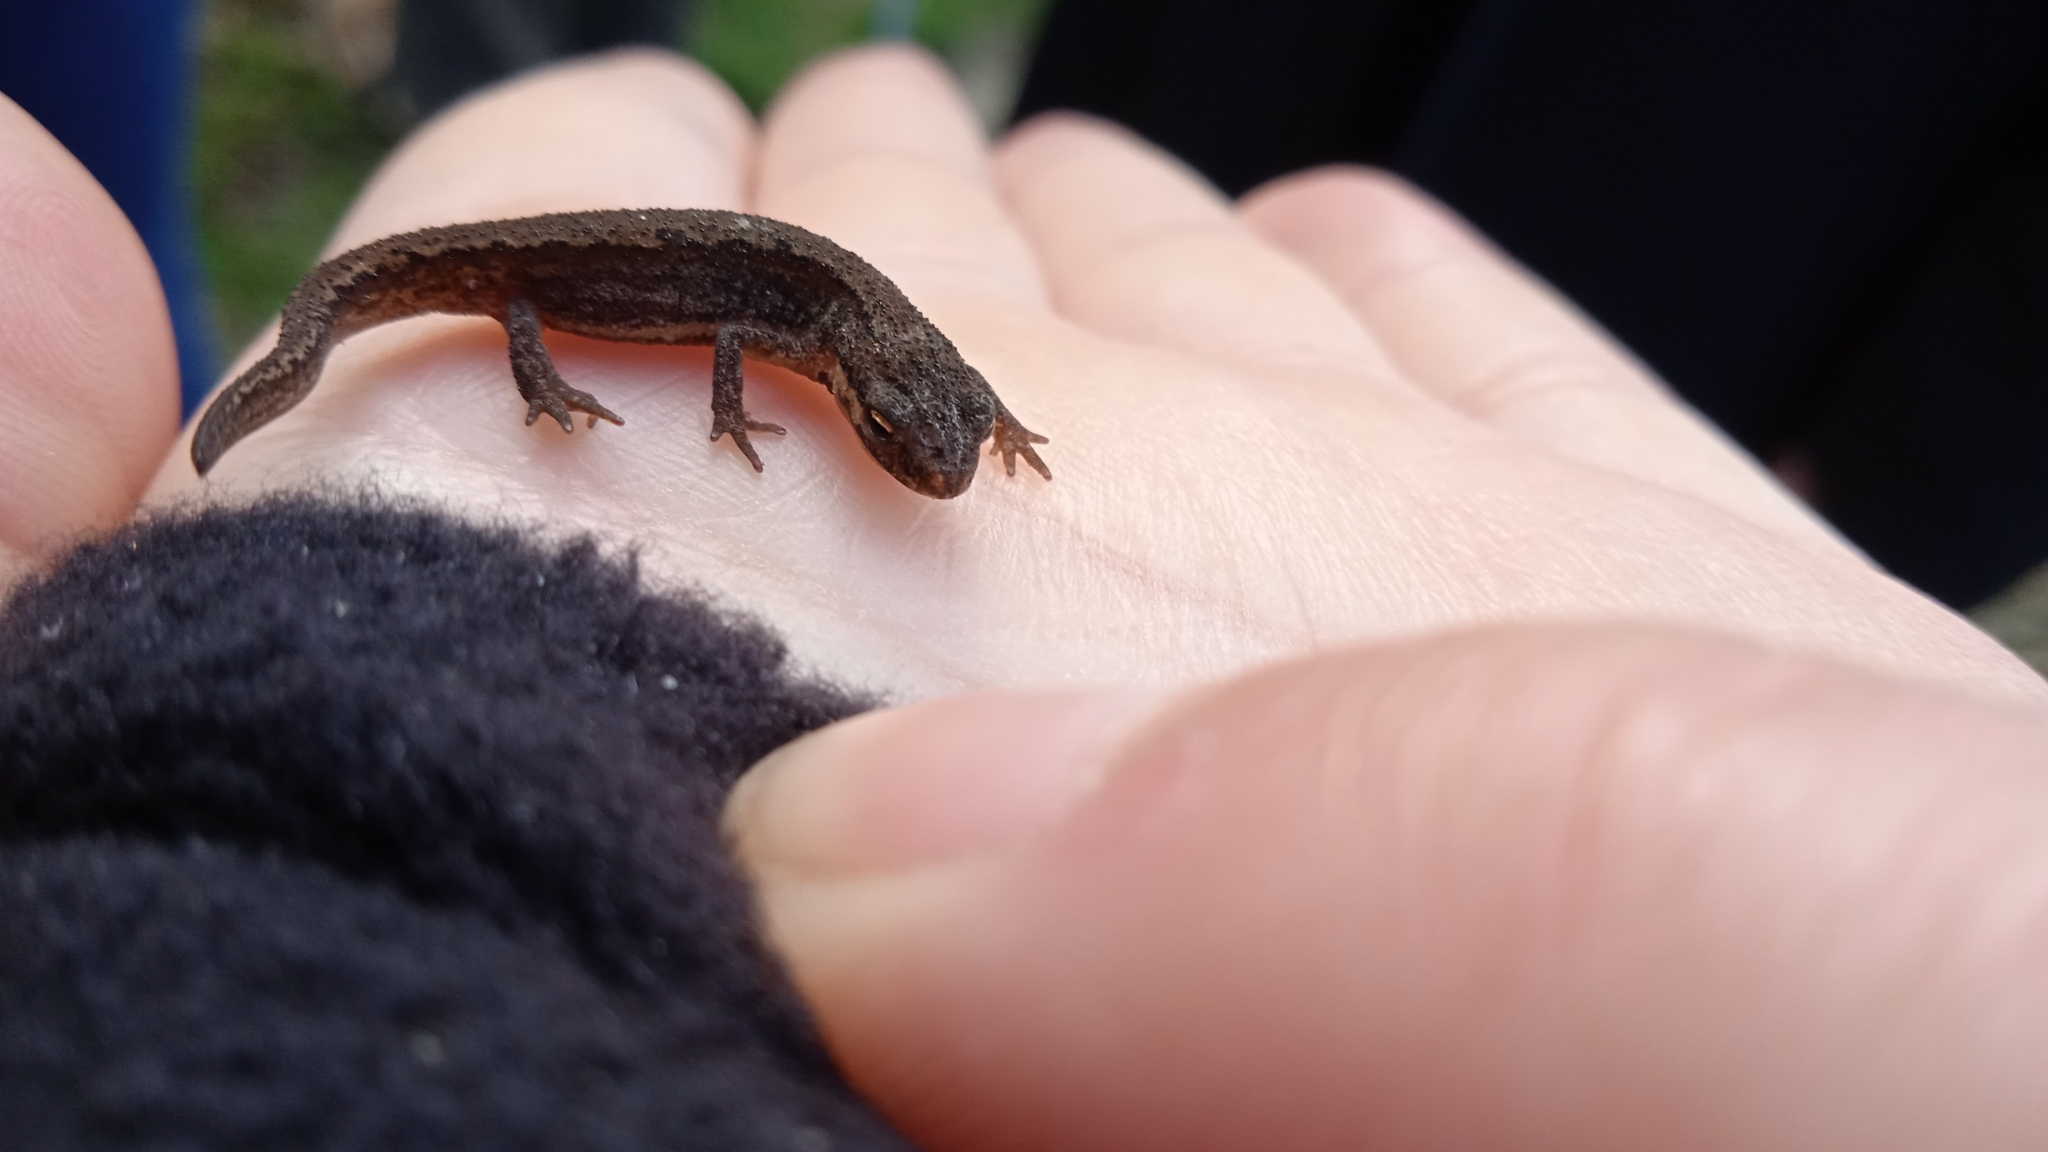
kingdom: Animalia
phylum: Chordata
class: Amphibia
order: Caudata
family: Salamandridae
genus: Lissotriton
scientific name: Lissotriton vulgaris
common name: Smooth newt
